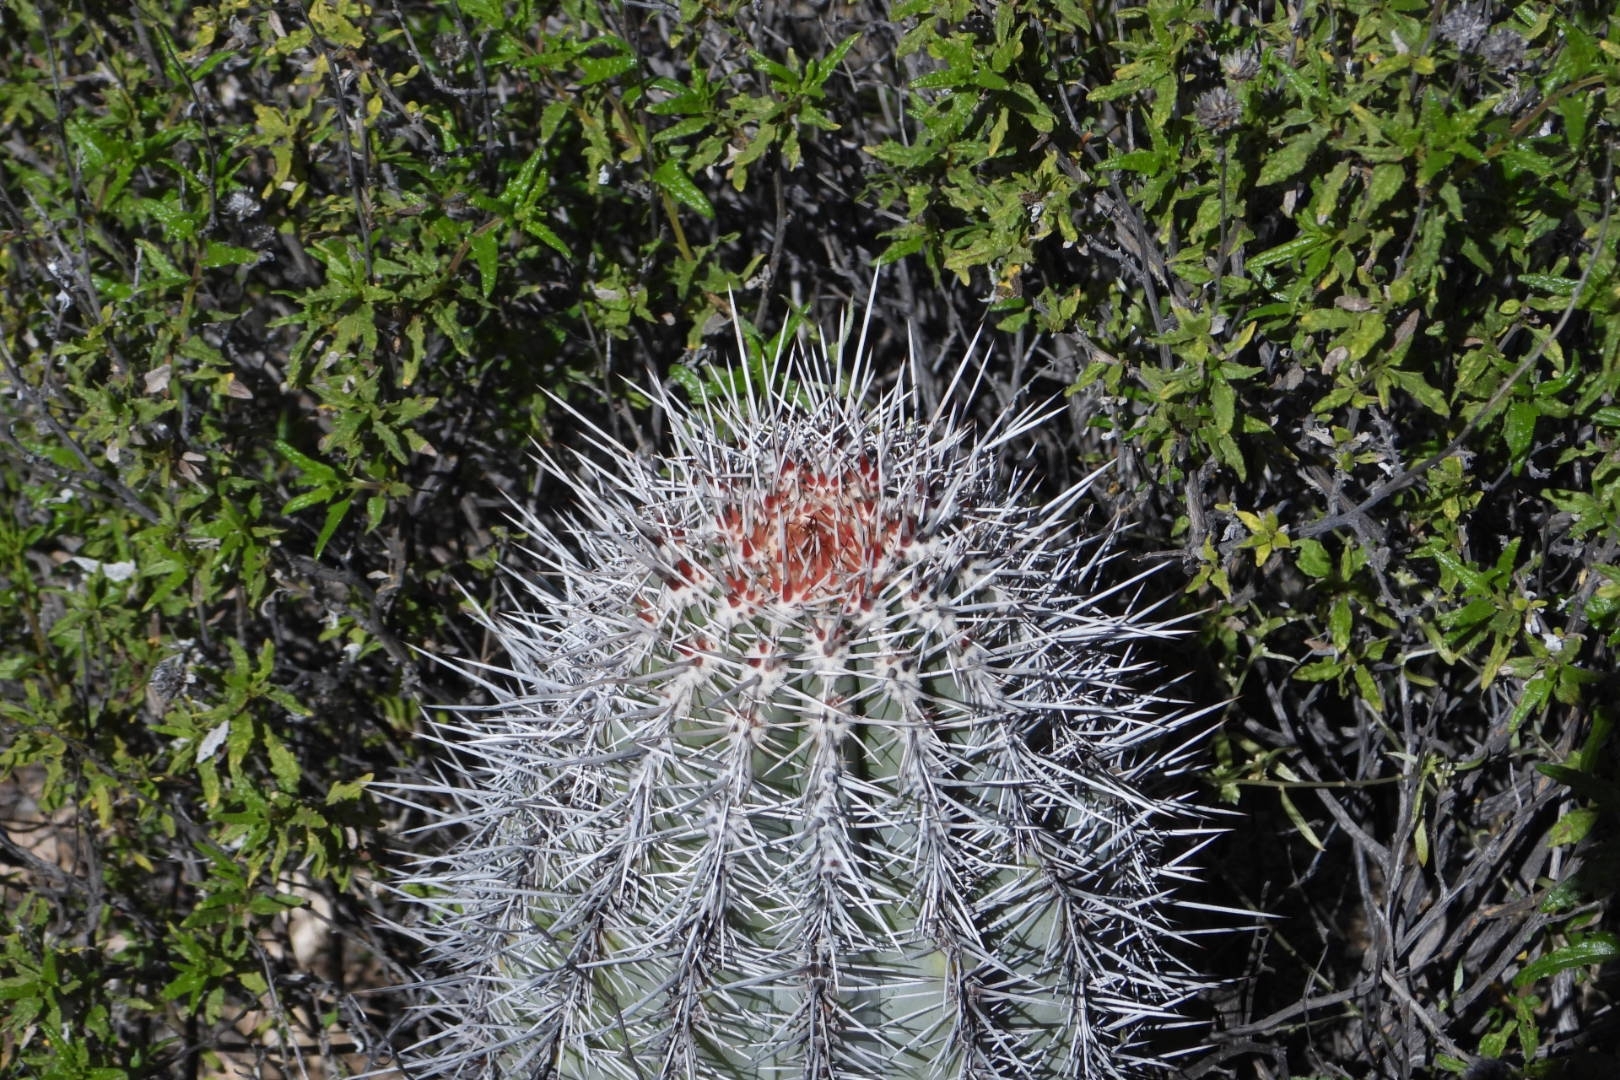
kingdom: Plantae
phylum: Tracheophyta
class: Magnoliopsida
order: Caryophyllales
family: Cactaceae
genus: Pachycereus
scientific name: Pachycereus pringlei
